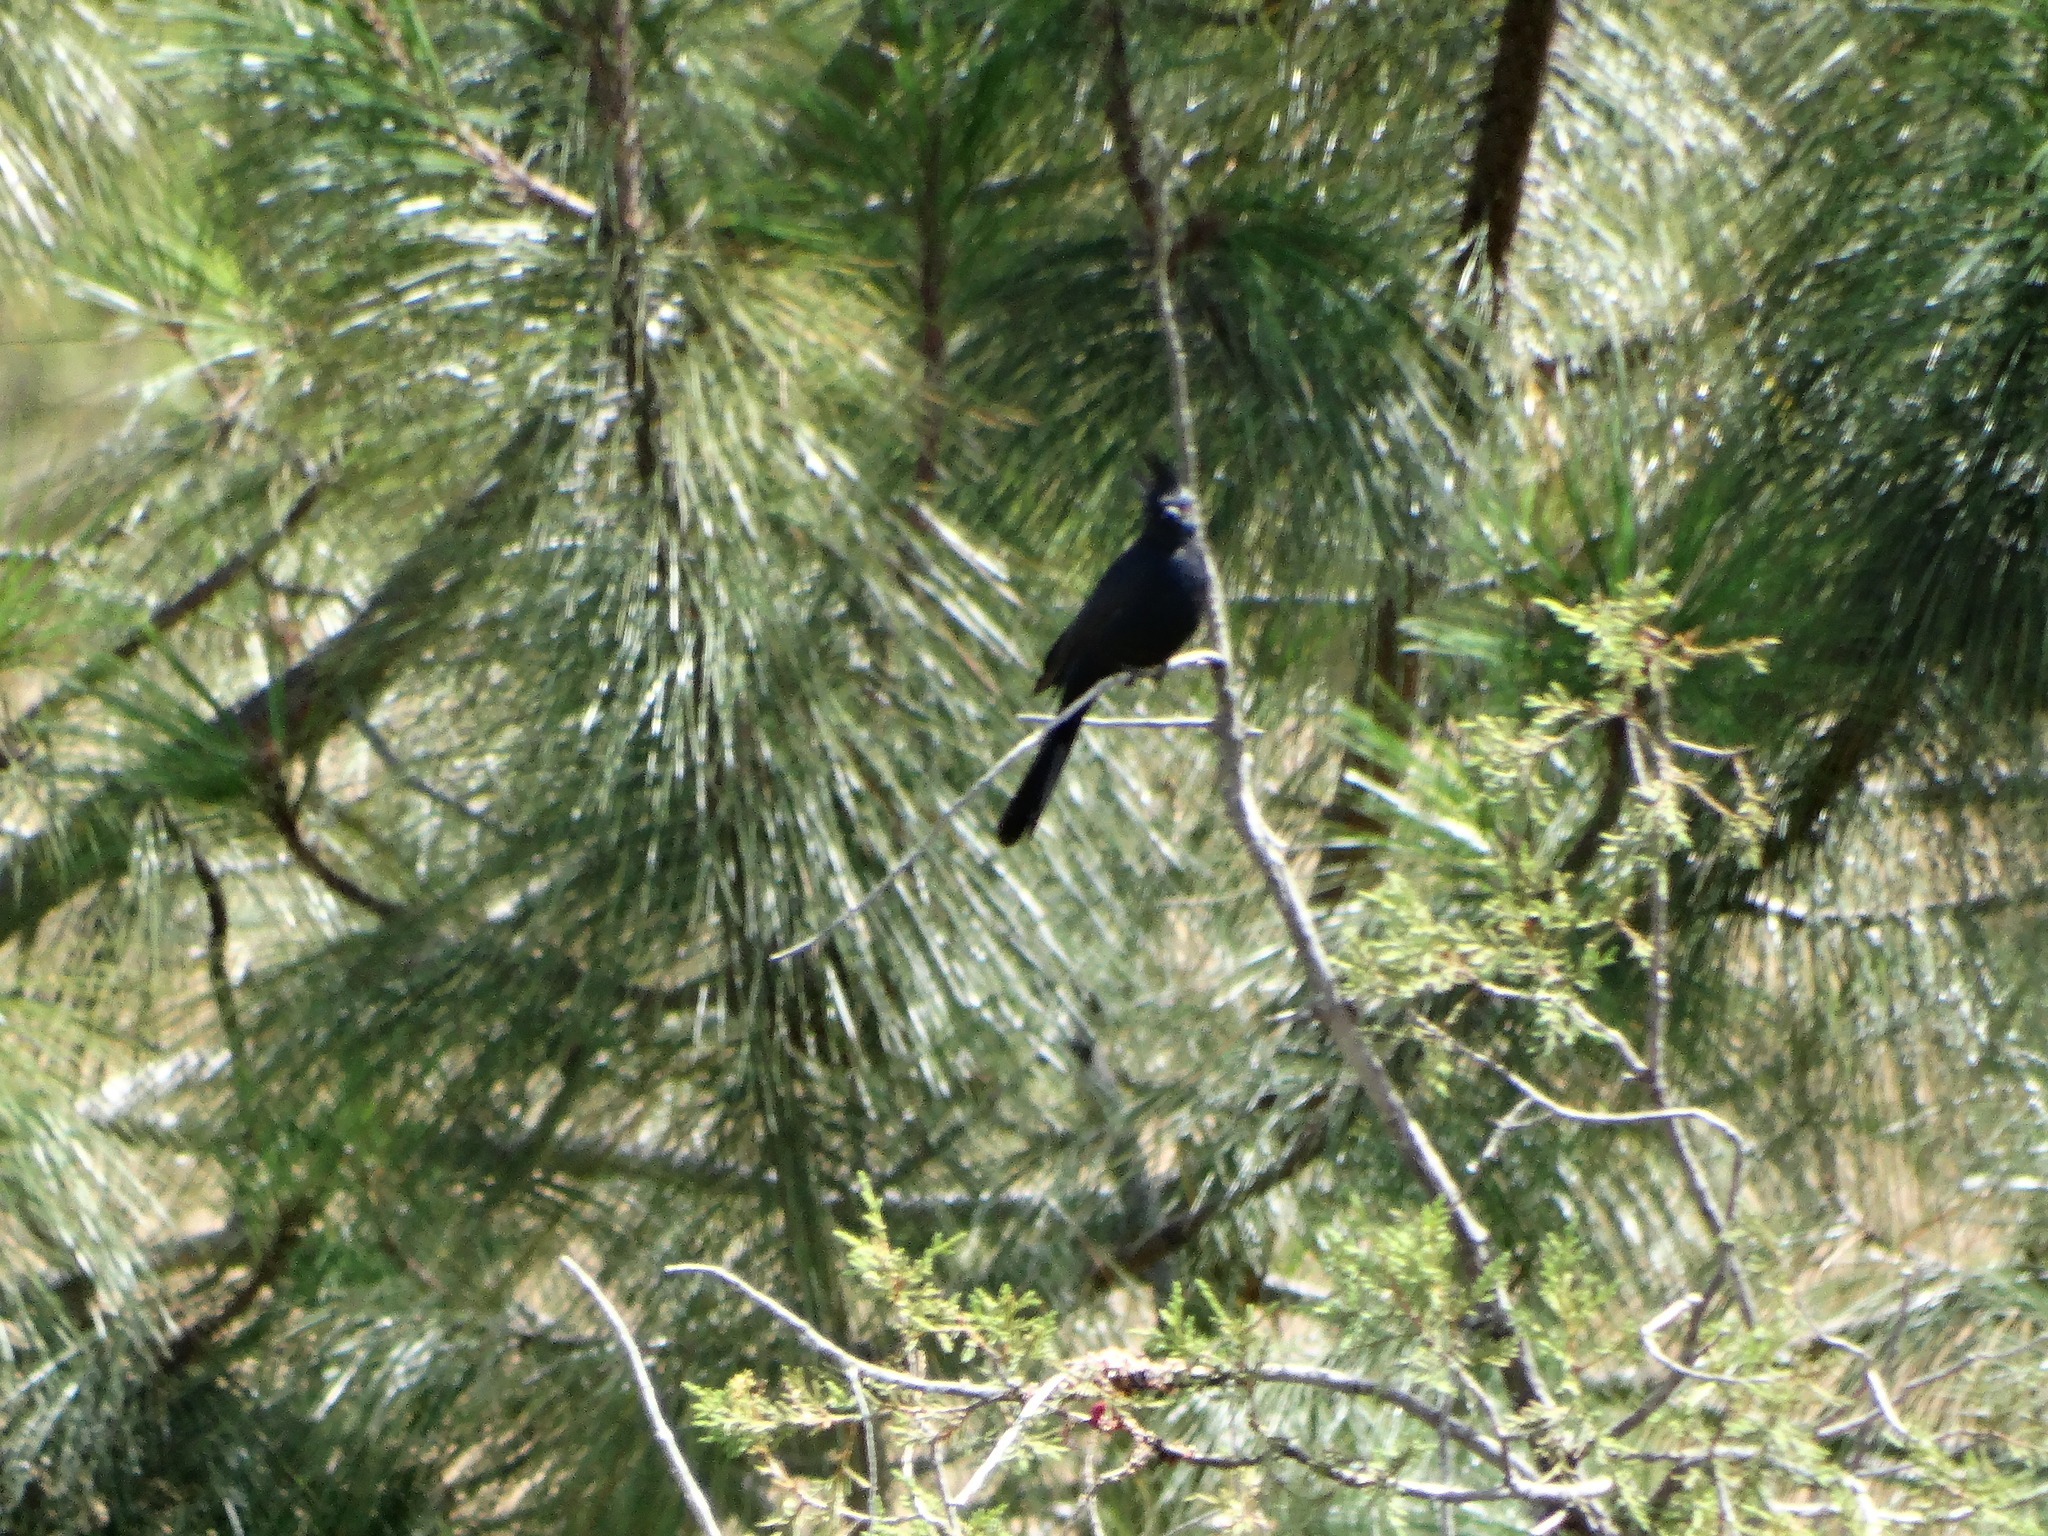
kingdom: Animalia
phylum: Chordata
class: Aves
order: Passeriformes
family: Ptilogonatidae
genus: Phainopepla
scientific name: Phainopepla nitens
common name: Phainopepla
